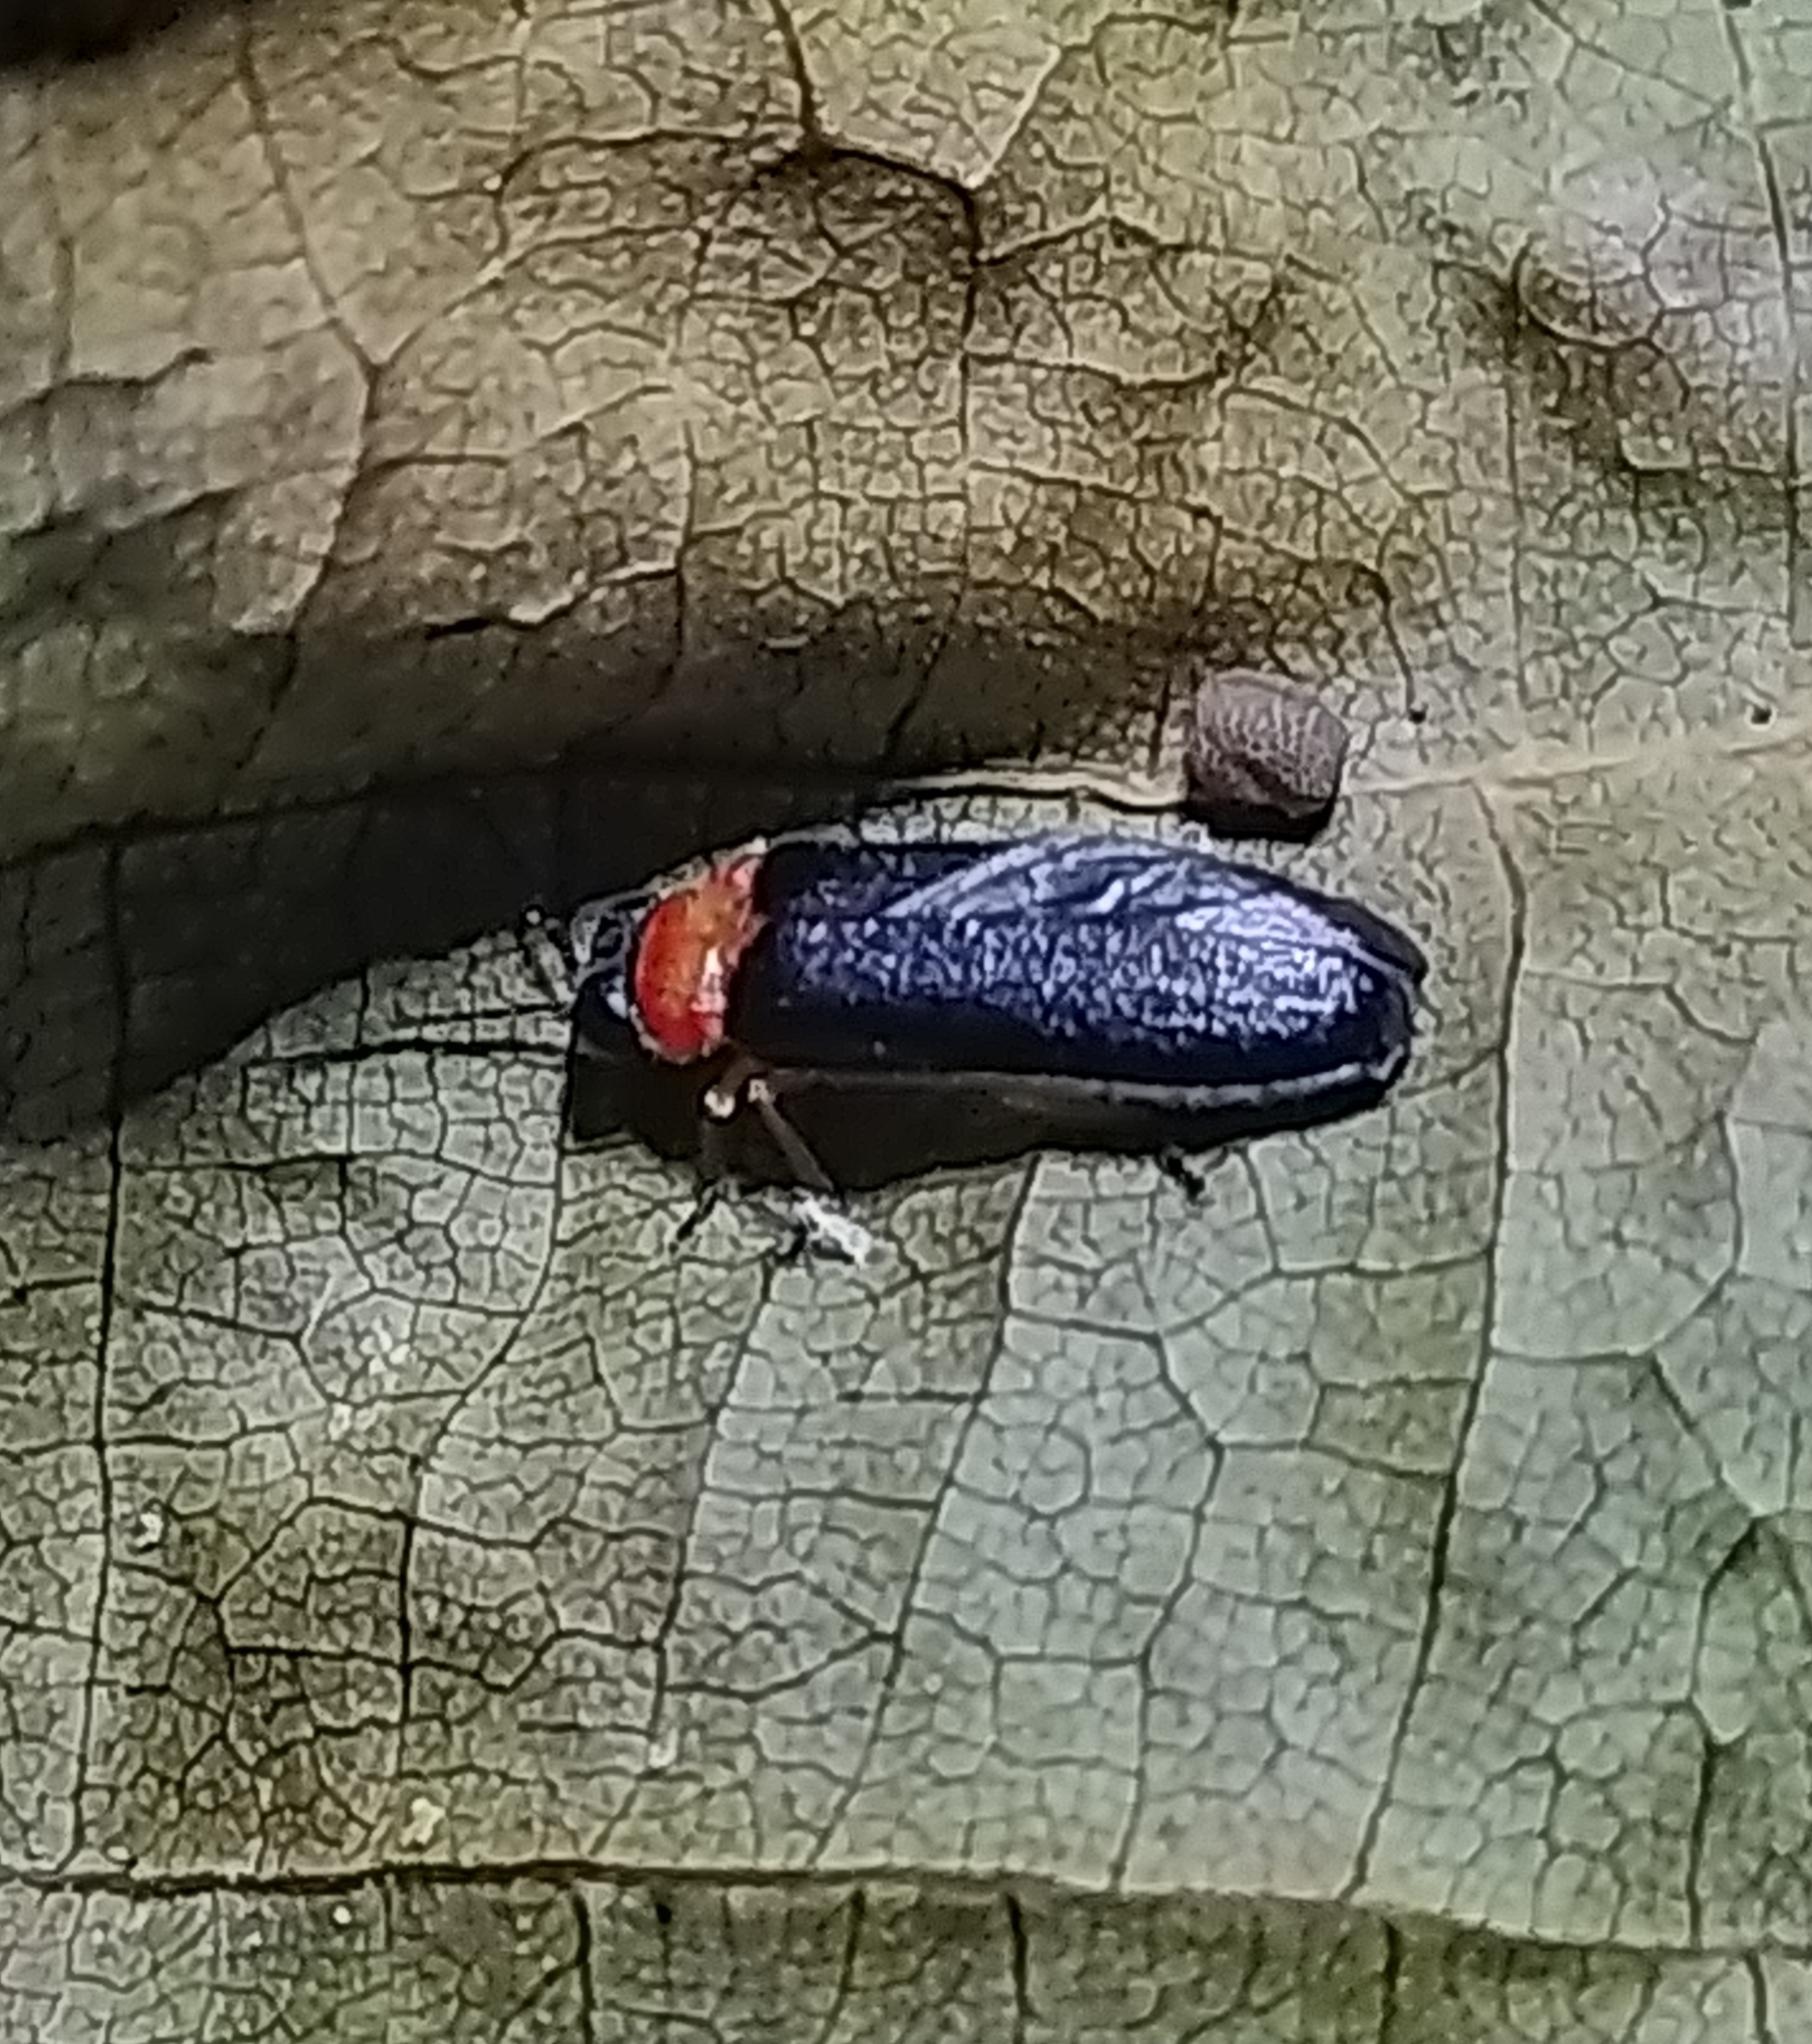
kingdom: Animalia
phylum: Arthropoda
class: Insecta
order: Coleoptera
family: Lampyridae
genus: Luciola
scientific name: Luciola lusitanica
